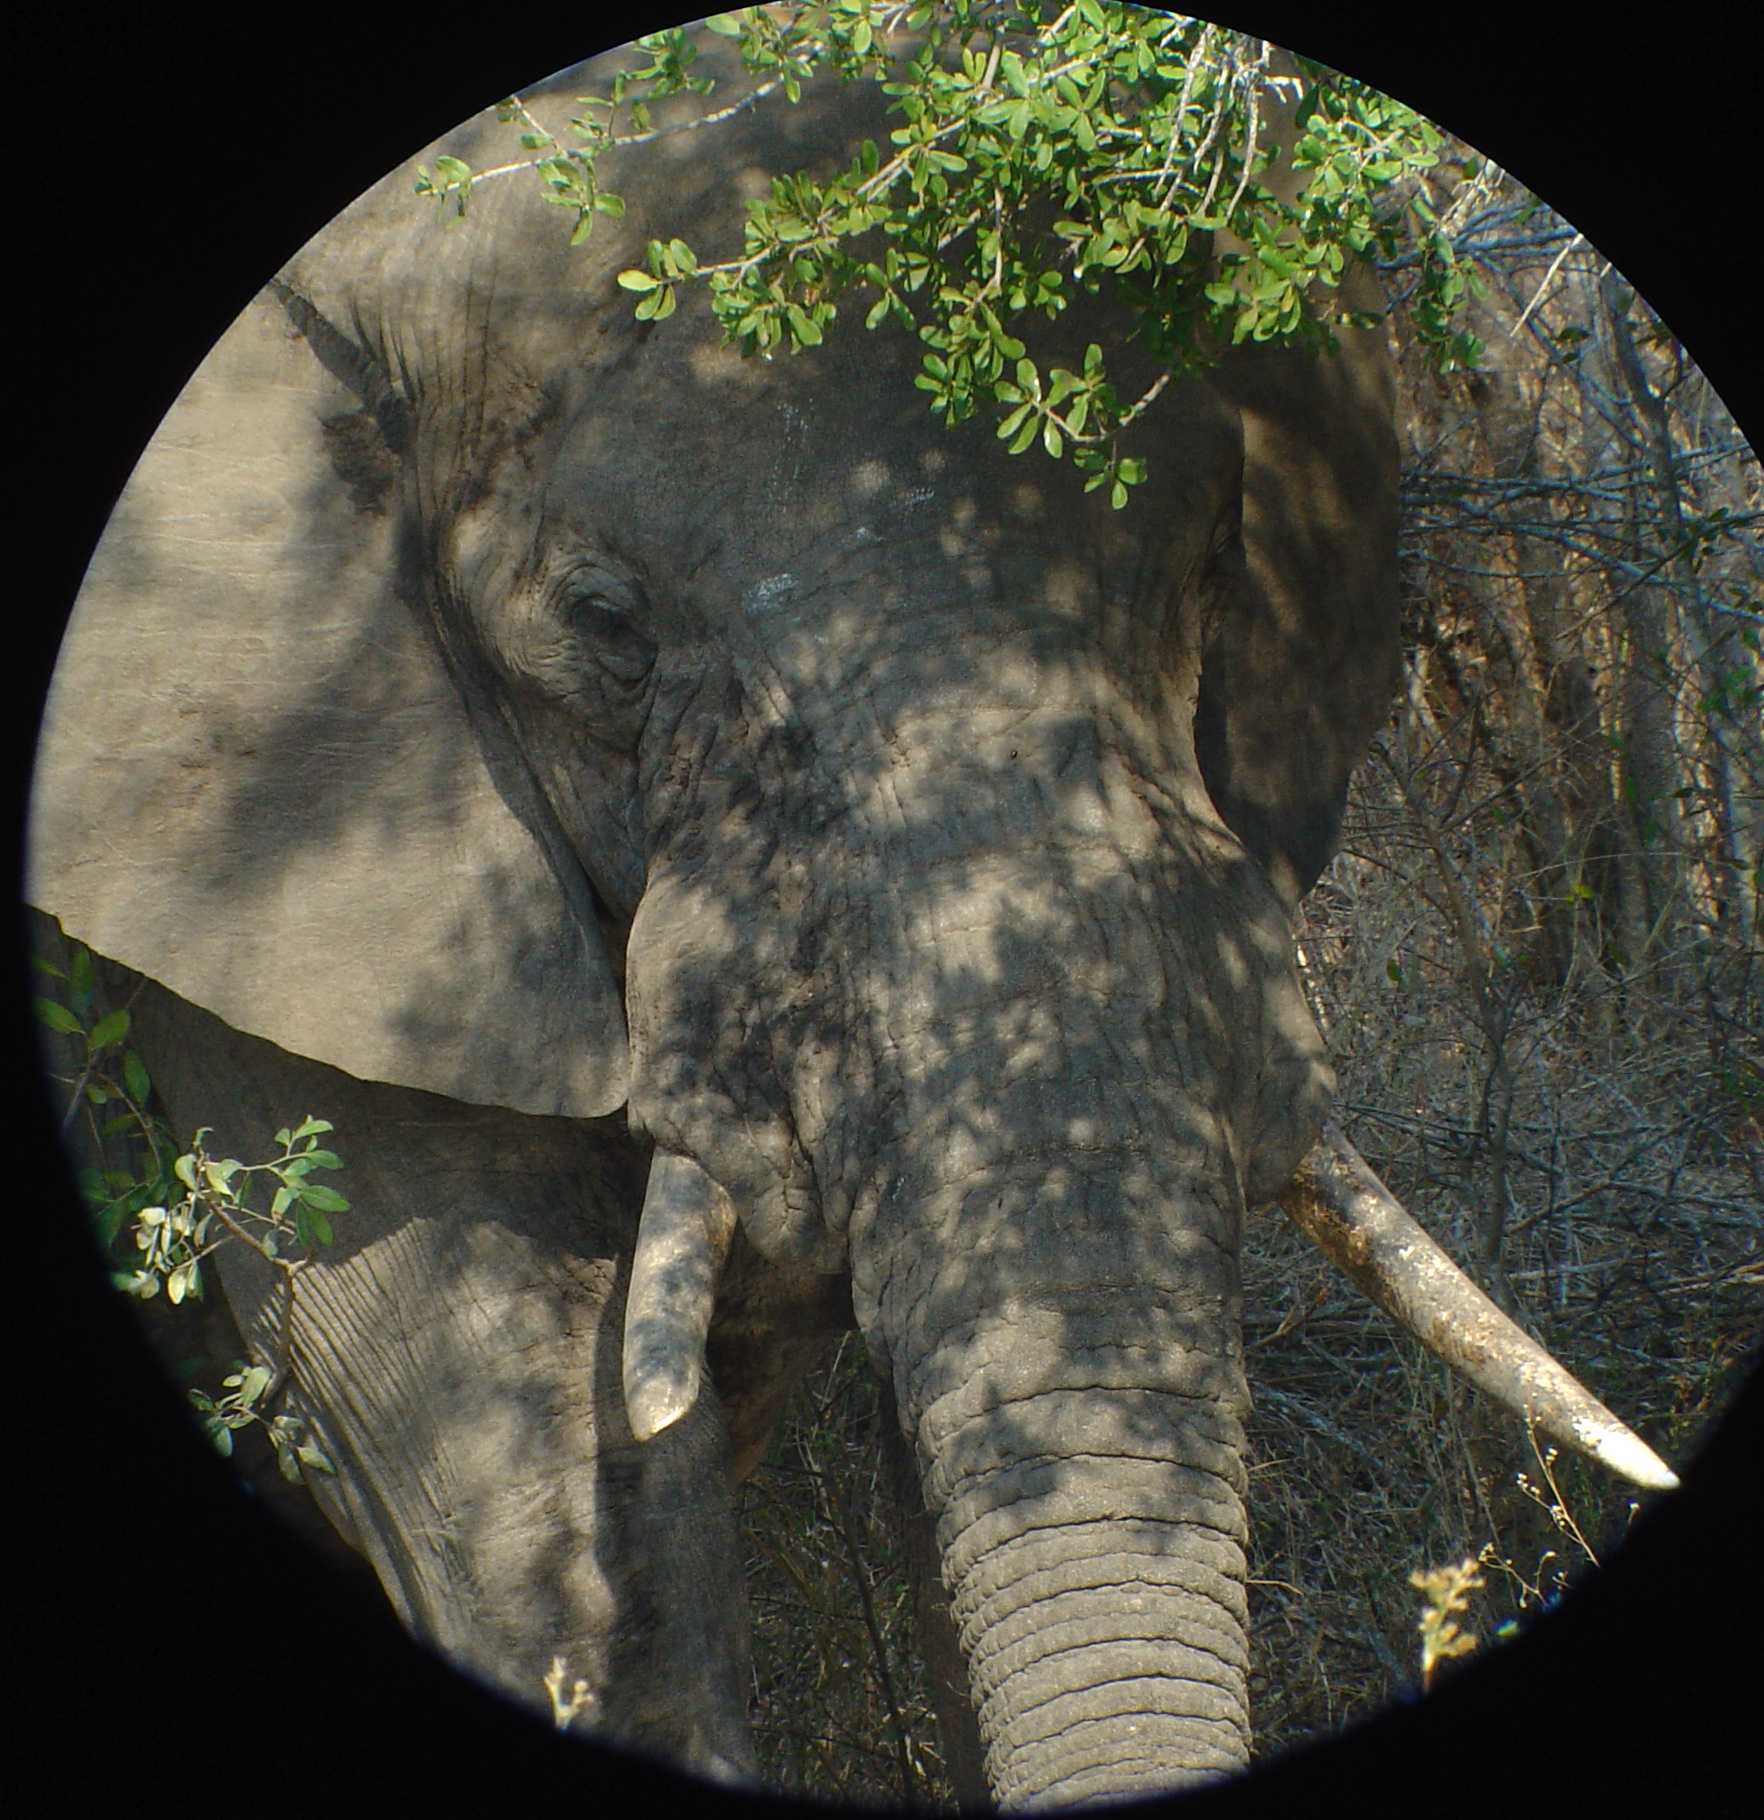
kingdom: Animalia
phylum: Chordata
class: Mammalia
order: Proboscidea
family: Elephantidae
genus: Loxodonta
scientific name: Loxodonta africana
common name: African elephant
